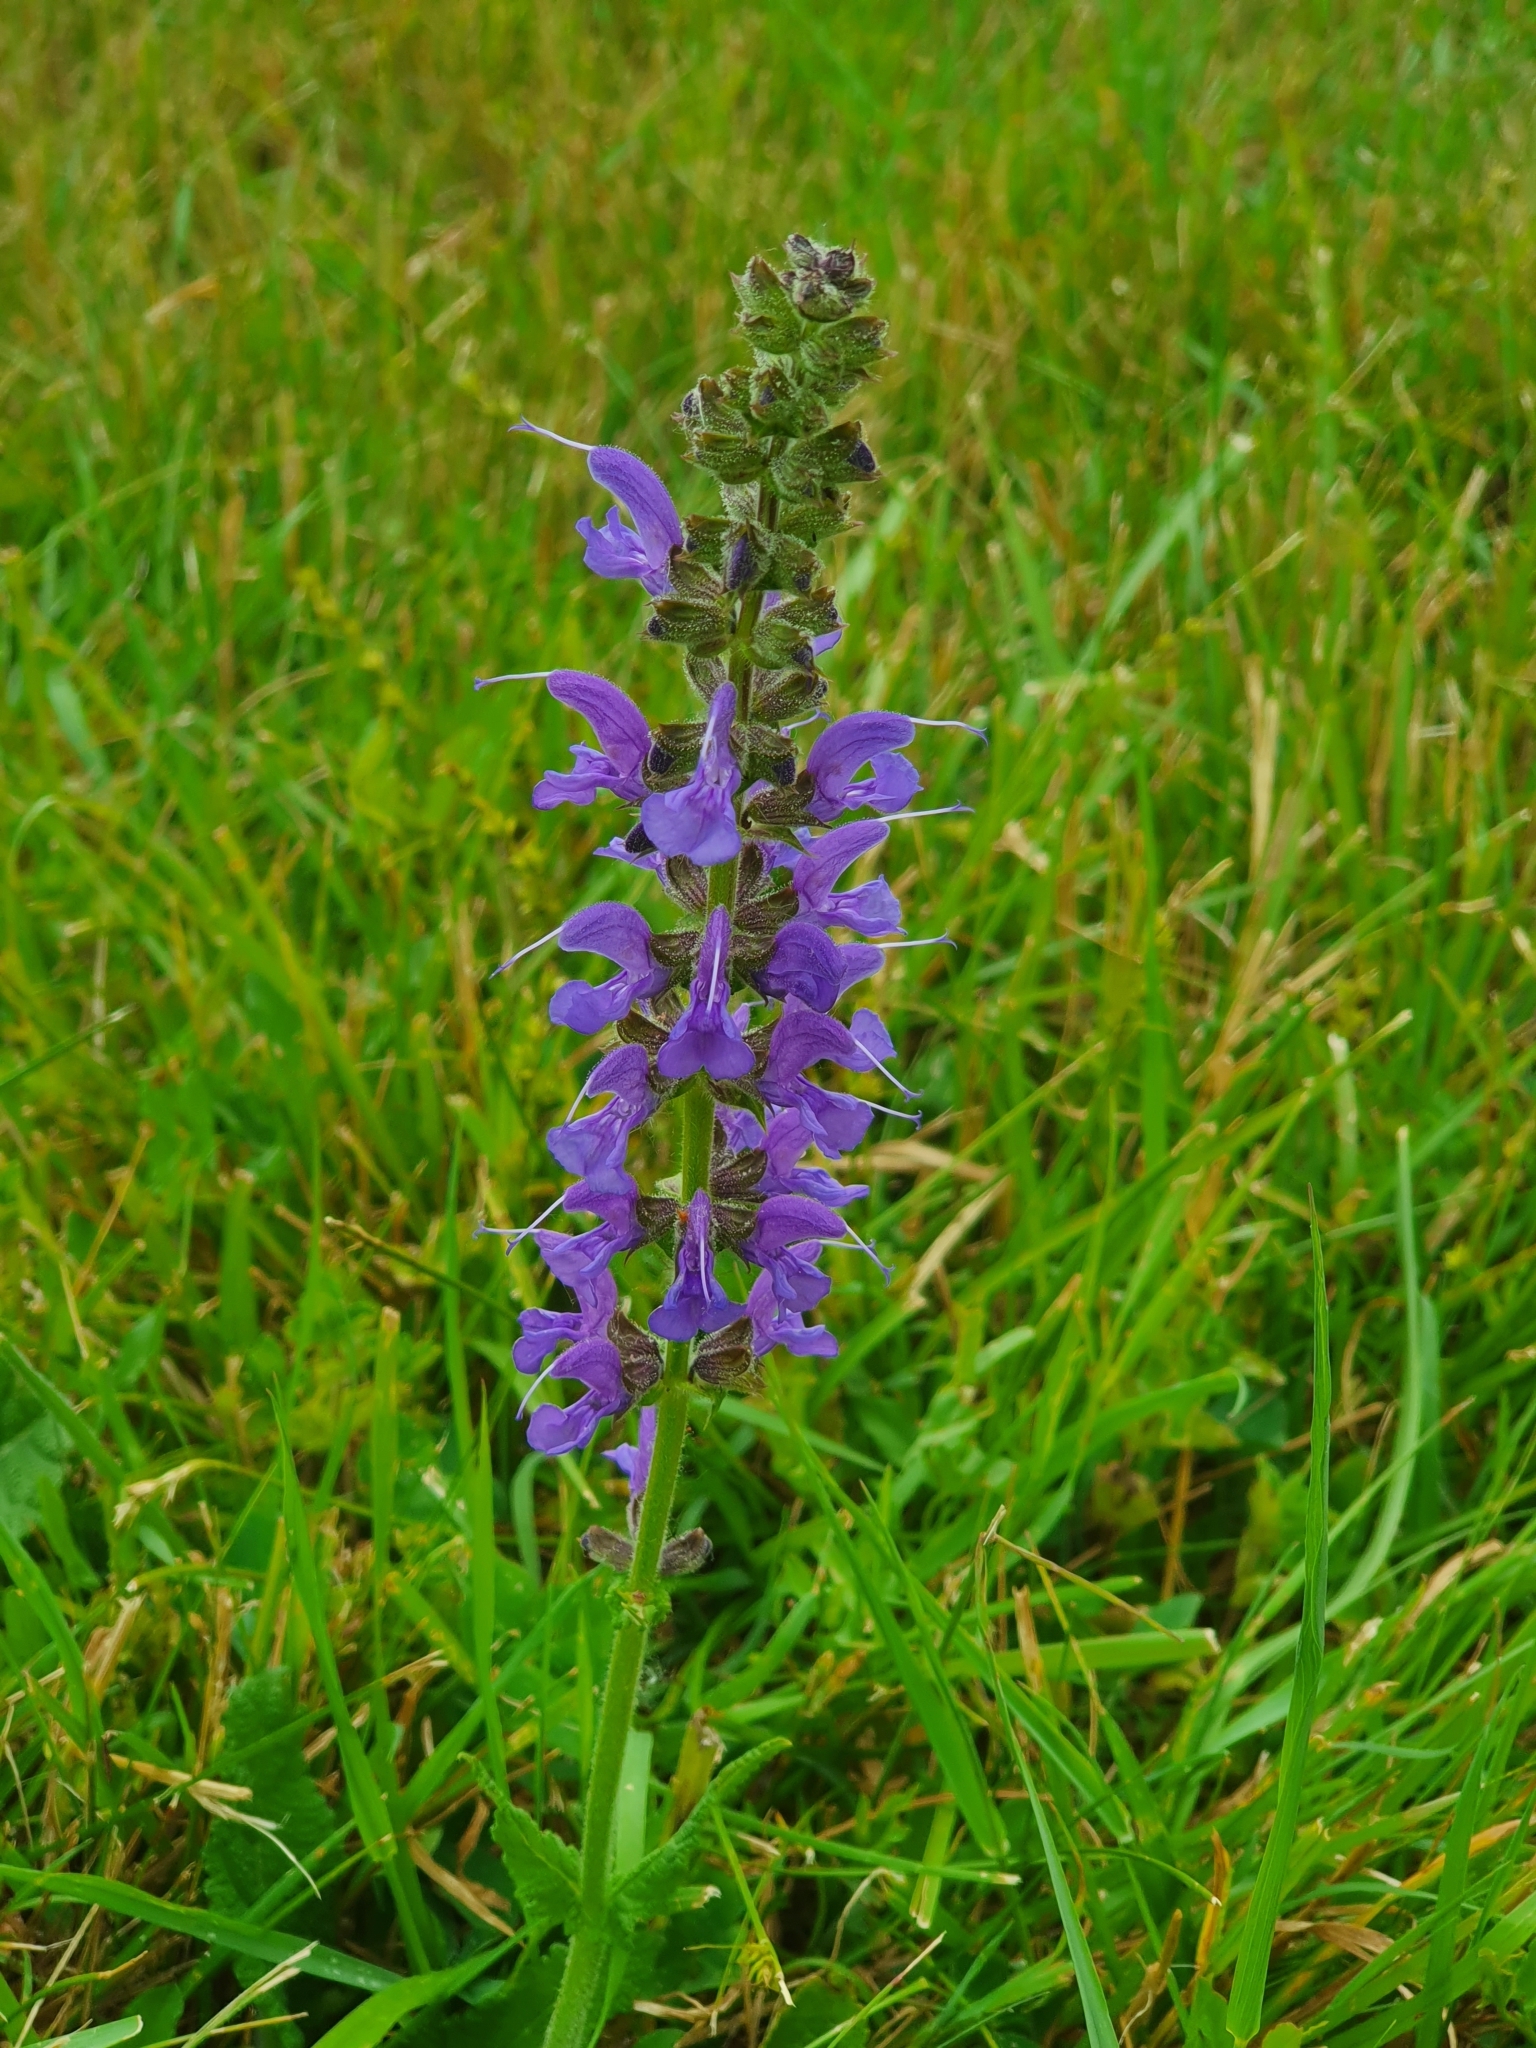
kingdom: Plantae
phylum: Tracheophyta
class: Magnoliopsida
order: Lamiales
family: Lamiaceae
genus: Salvia
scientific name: Salvia pratensis
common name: Meadow sage
